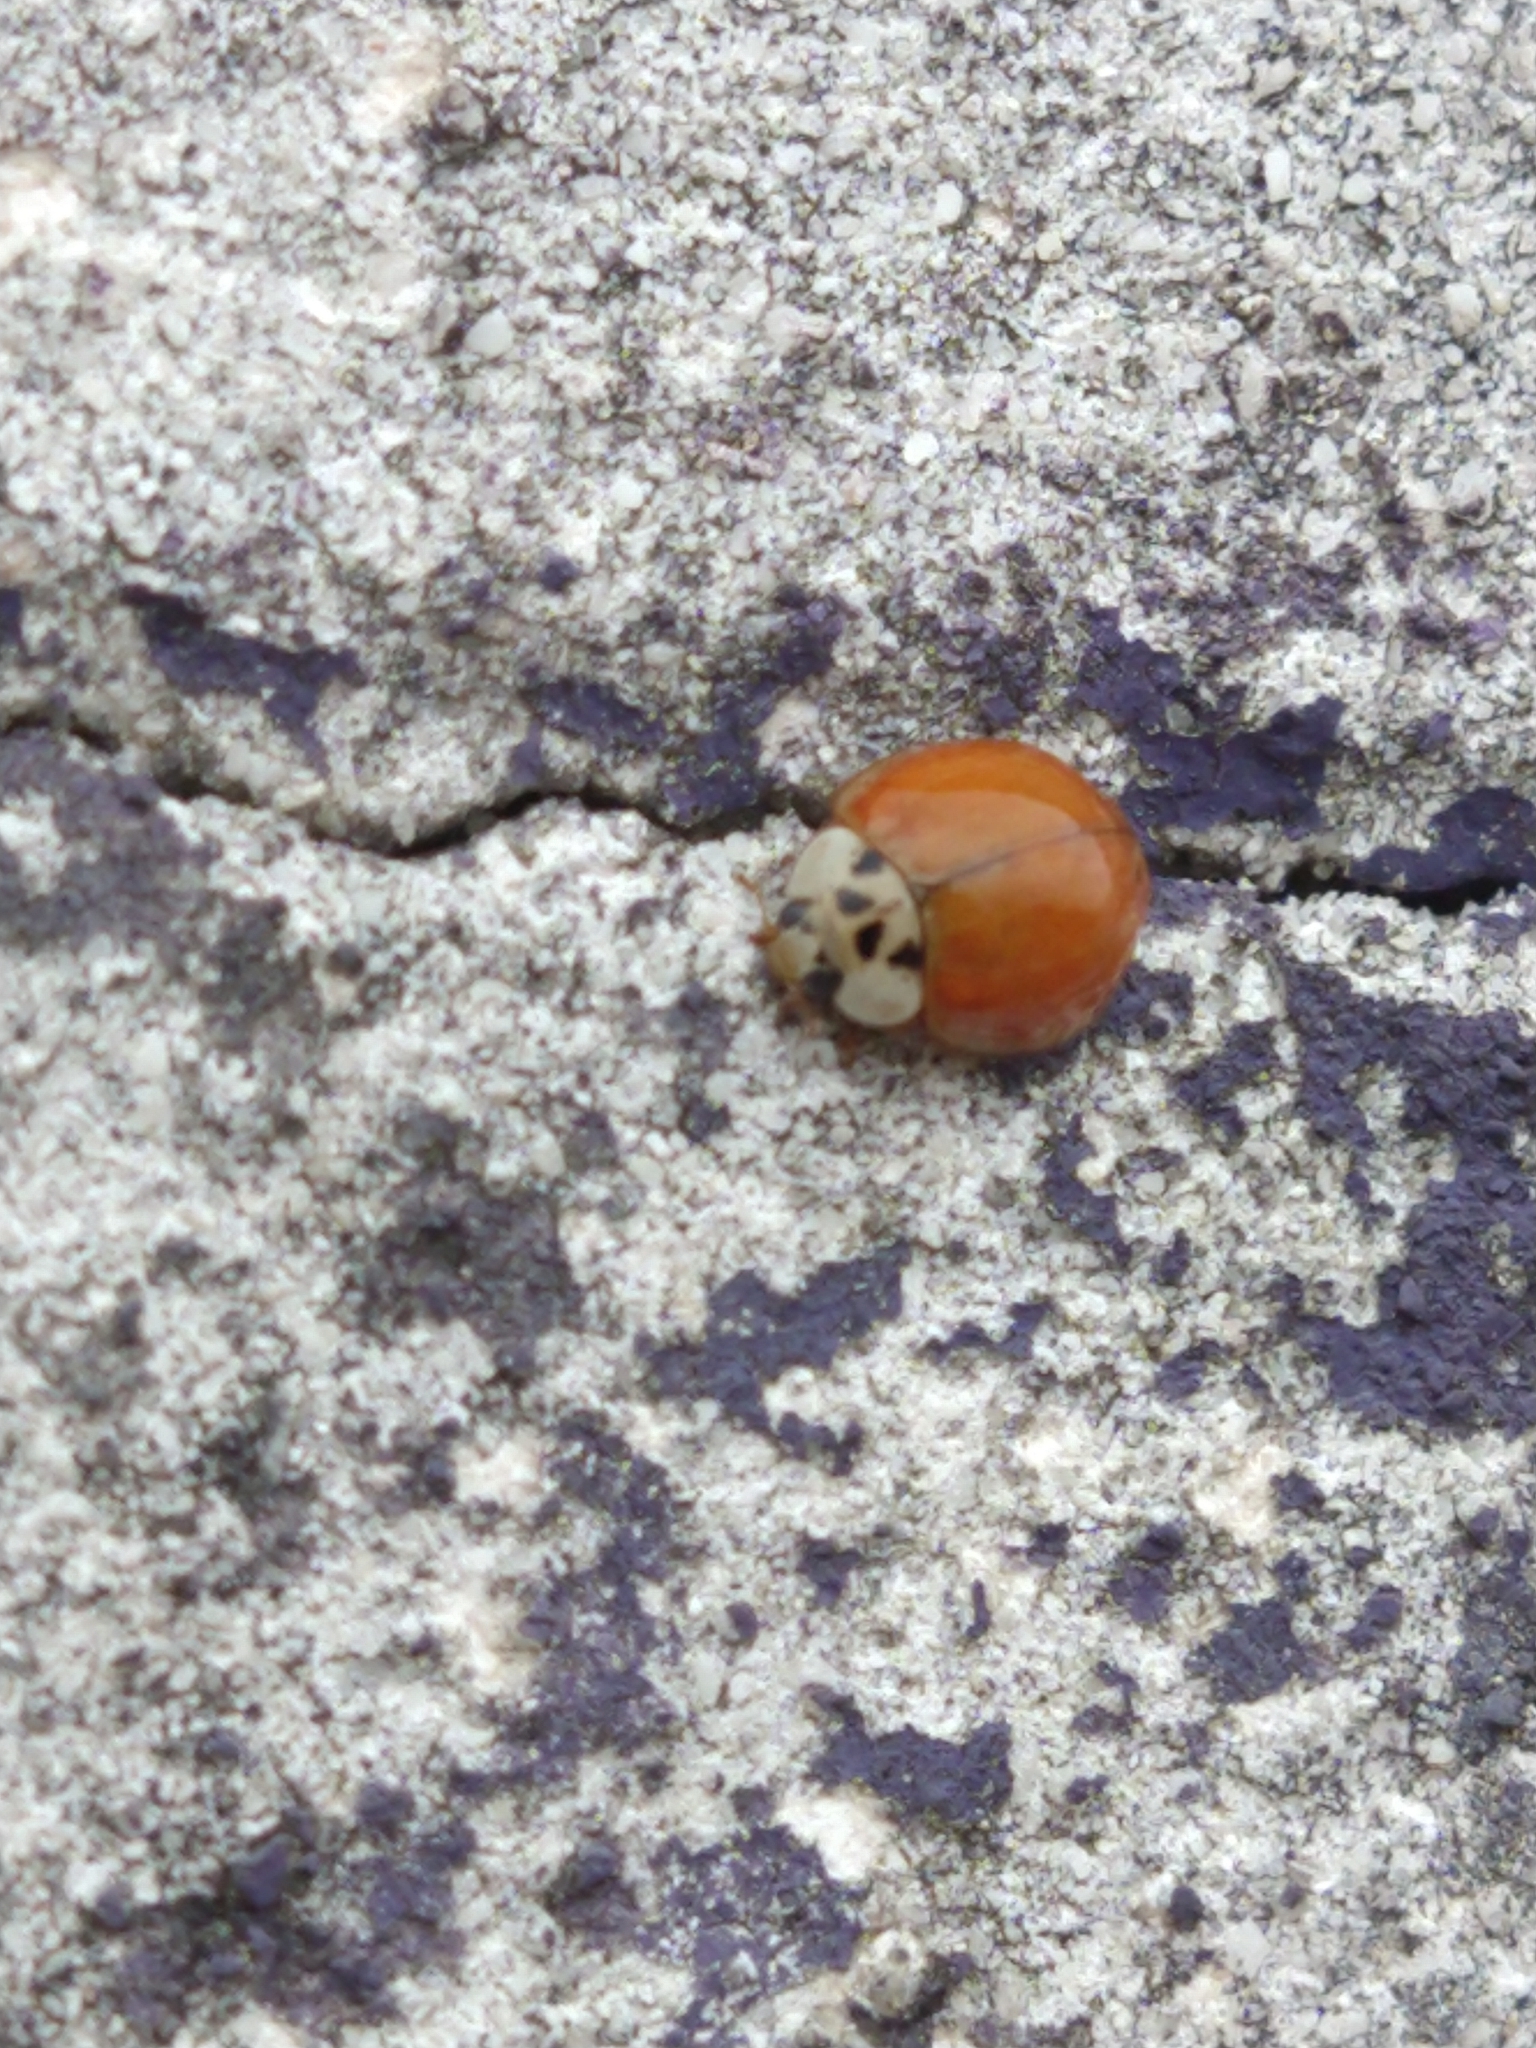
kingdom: Animalia
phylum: Arthropoda
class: Insecta
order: Coleoptera
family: Coccinellidae
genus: Harmonia
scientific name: Harmonia axyridis
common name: Harlequin ladybird
